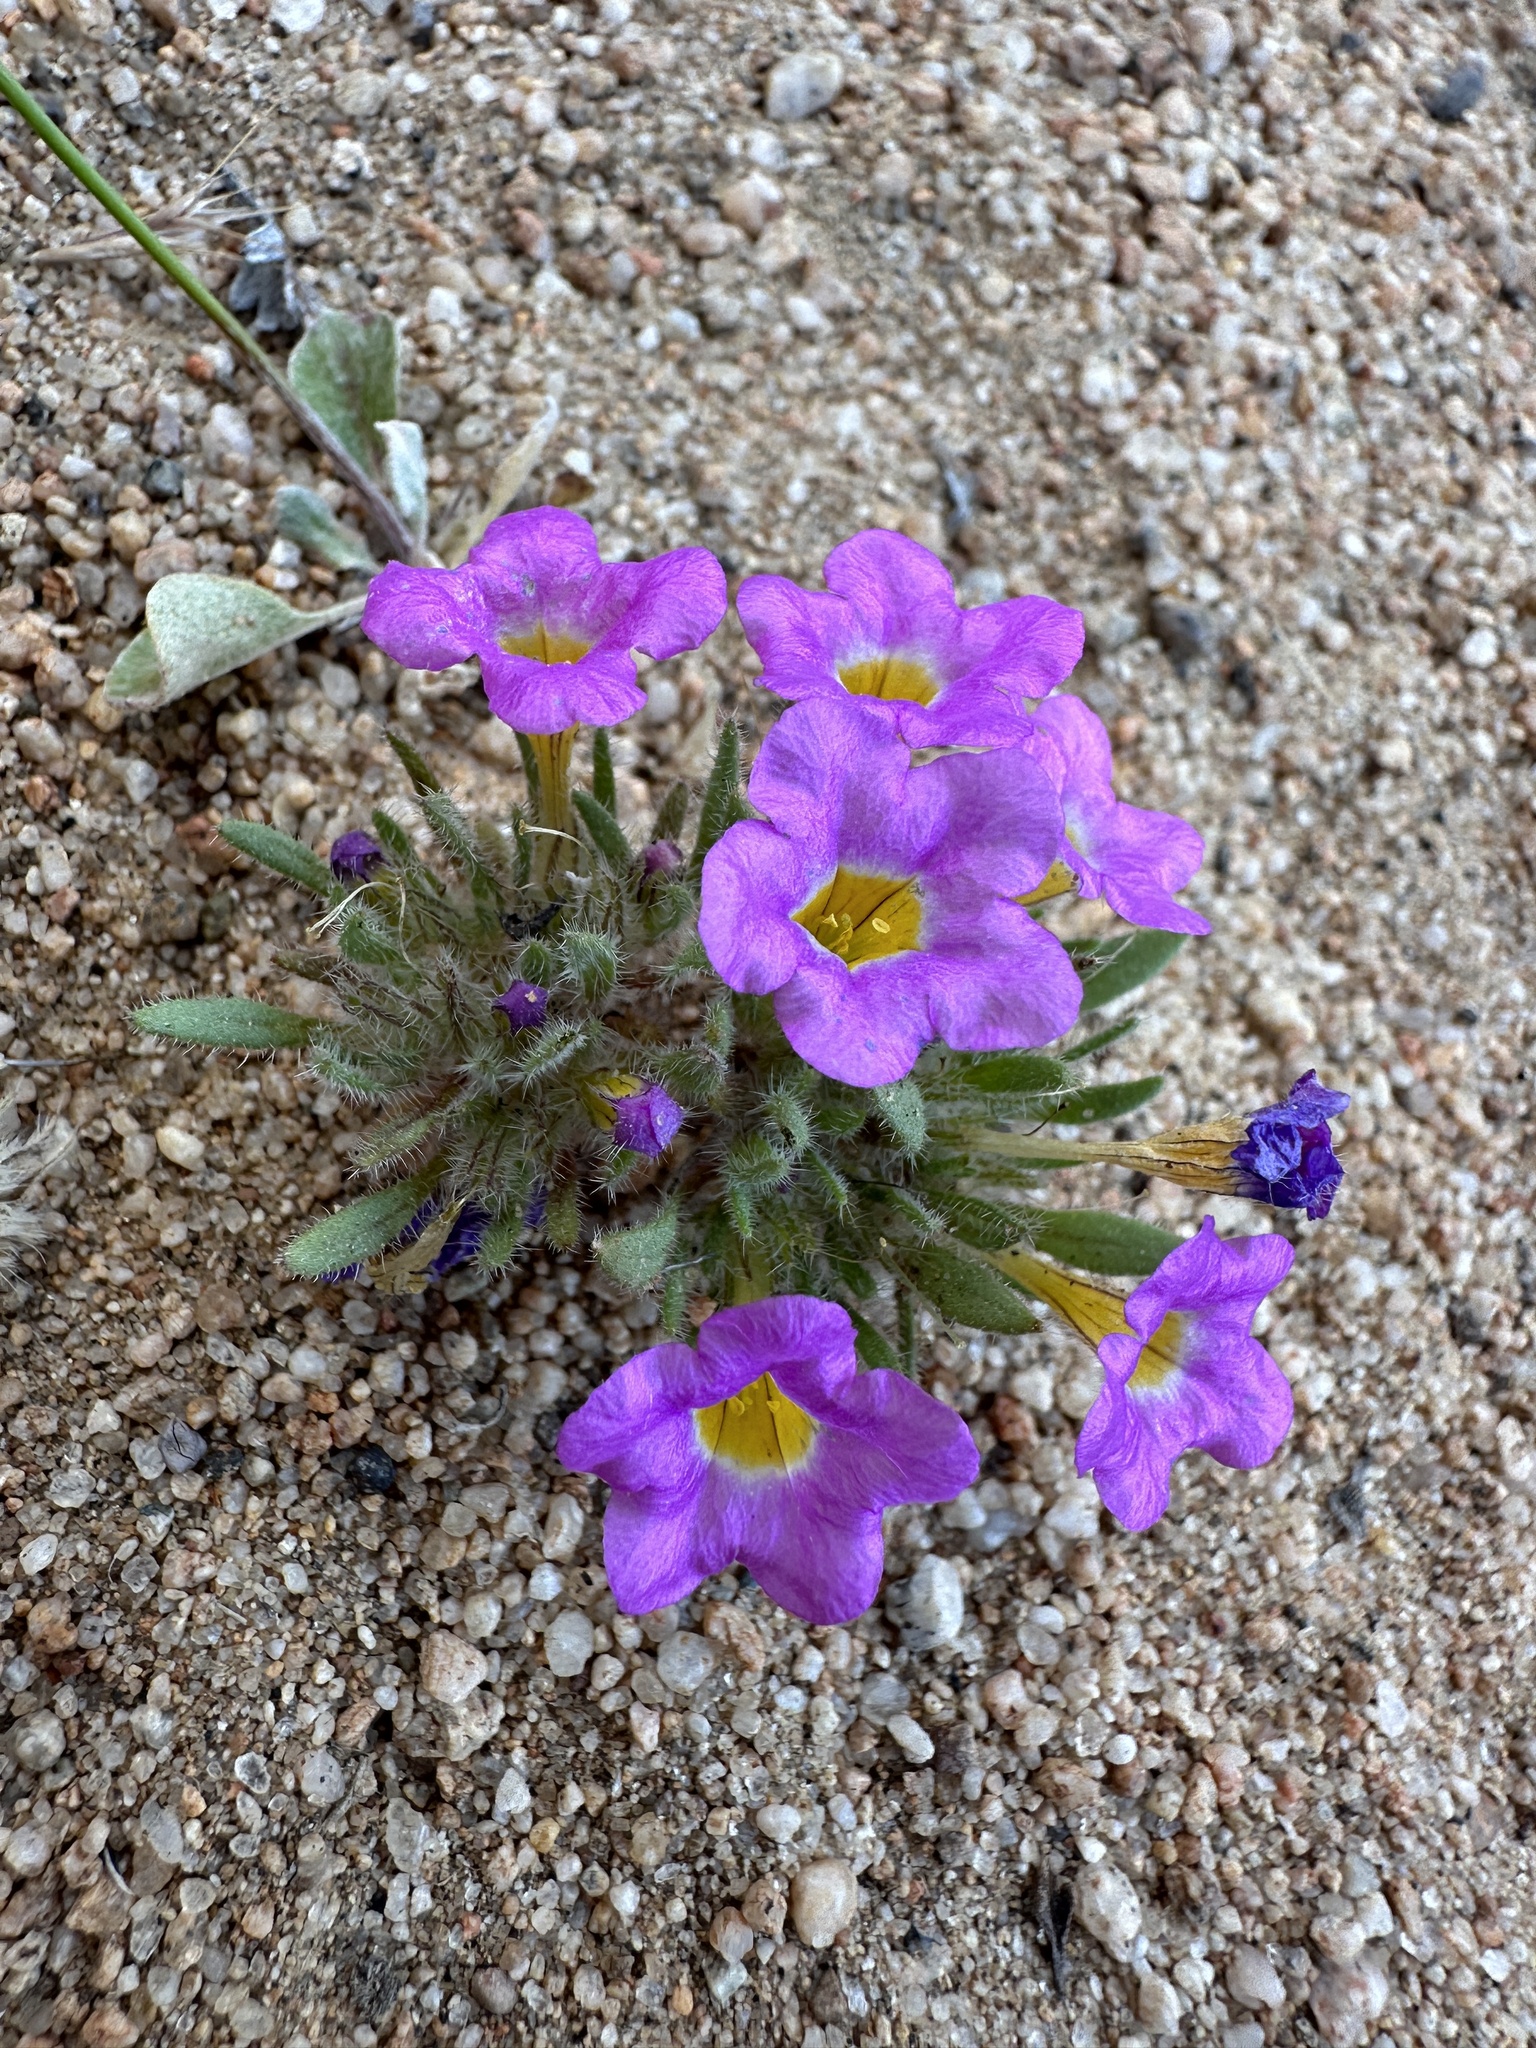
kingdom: Plantae
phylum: Tracheophyta
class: Magnoliopsida
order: Boraginales
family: Namaceae
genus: Nama
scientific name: Nama aretioides
